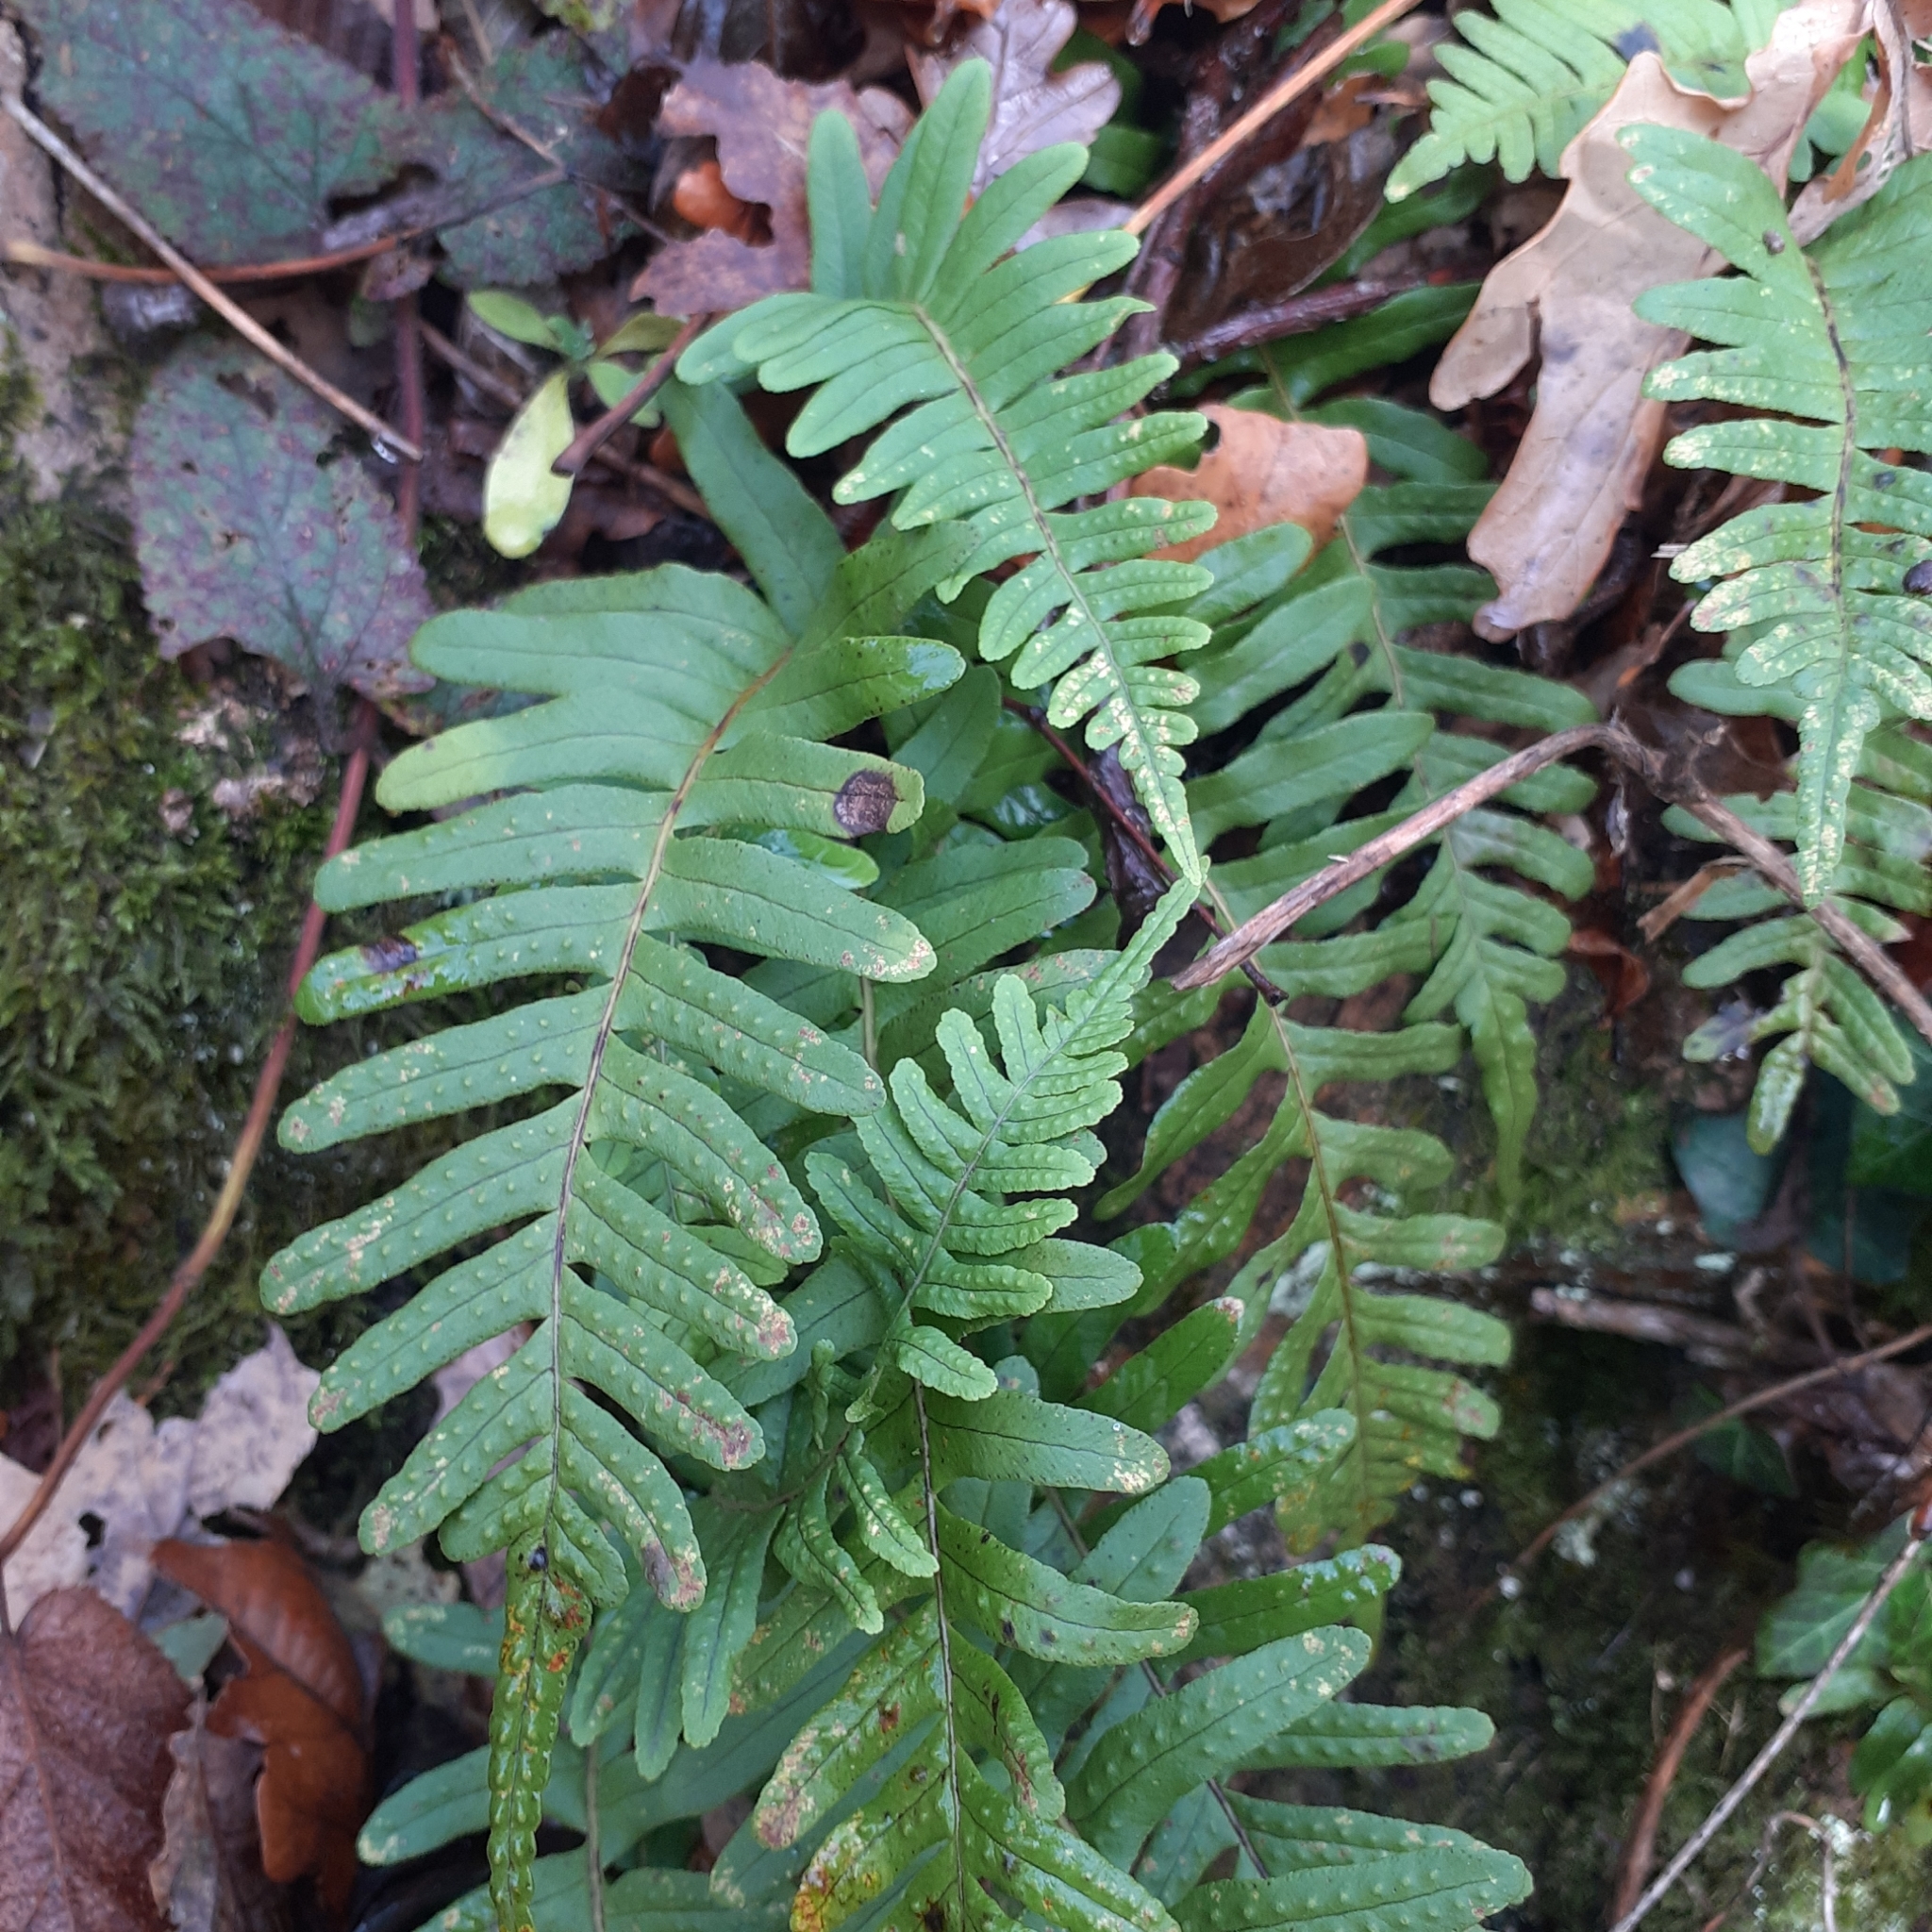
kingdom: Plantae
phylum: Tracheophyta
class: Polypodiopsida
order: Polypodiales
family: Polypodiaceae
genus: Polypodium
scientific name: Polypodium vulgare
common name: Common polypody
